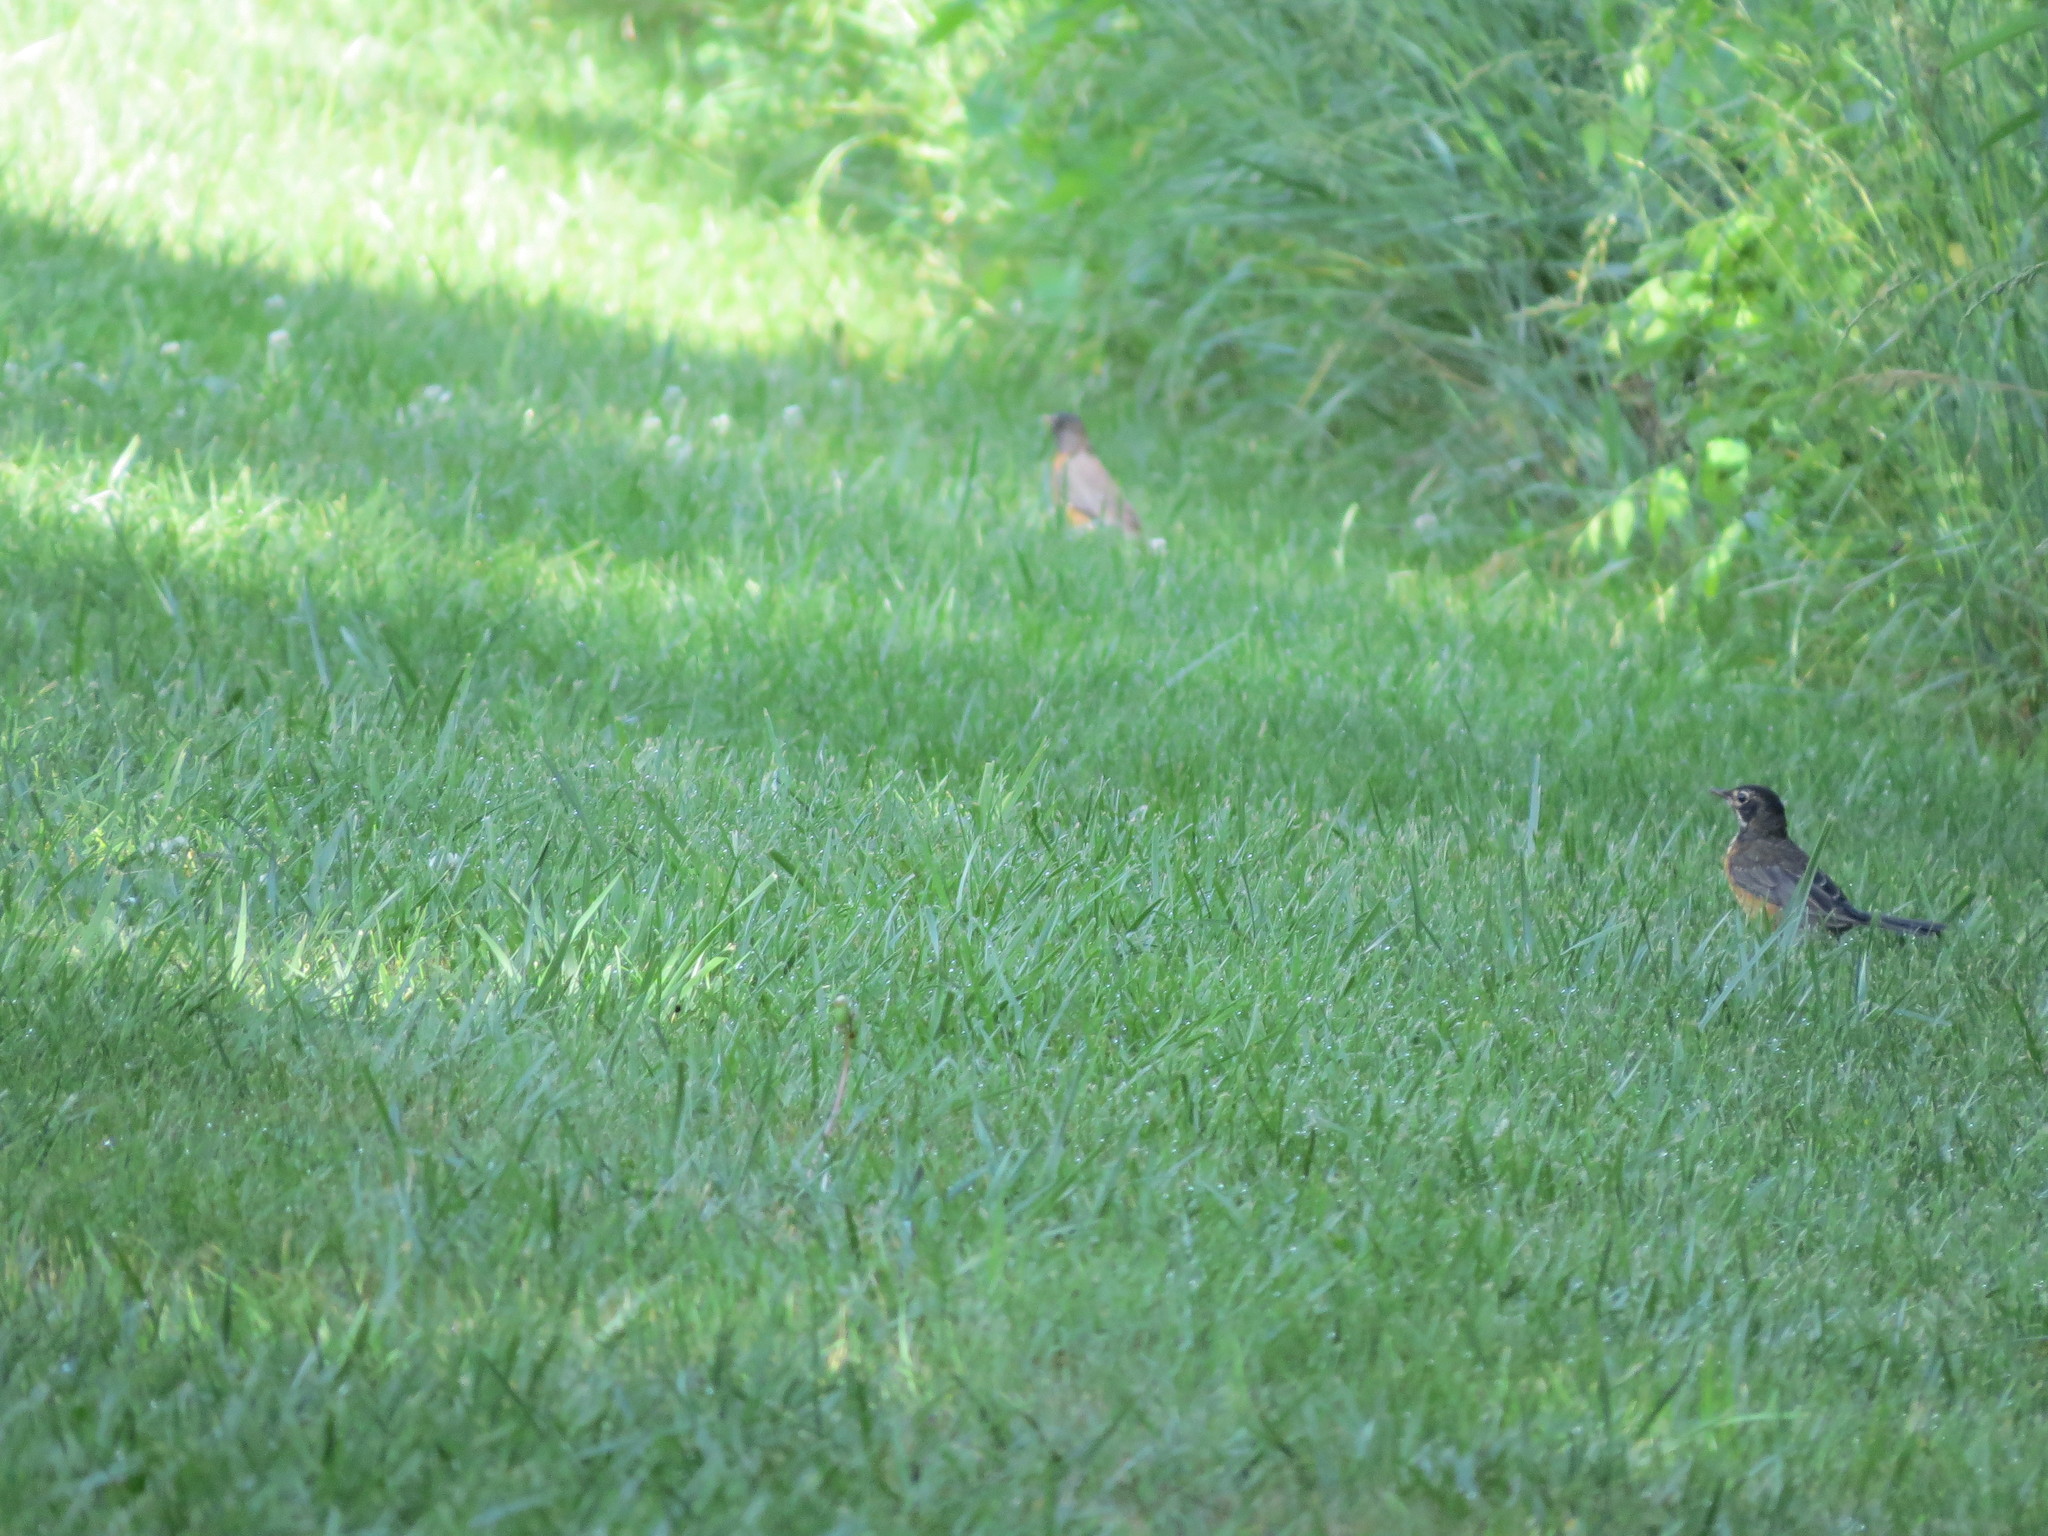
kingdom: Animalia
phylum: Chordata
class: Aves
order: Passeriformes
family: Turdidae
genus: Turdus
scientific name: Turdus migratorius
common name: American robin
